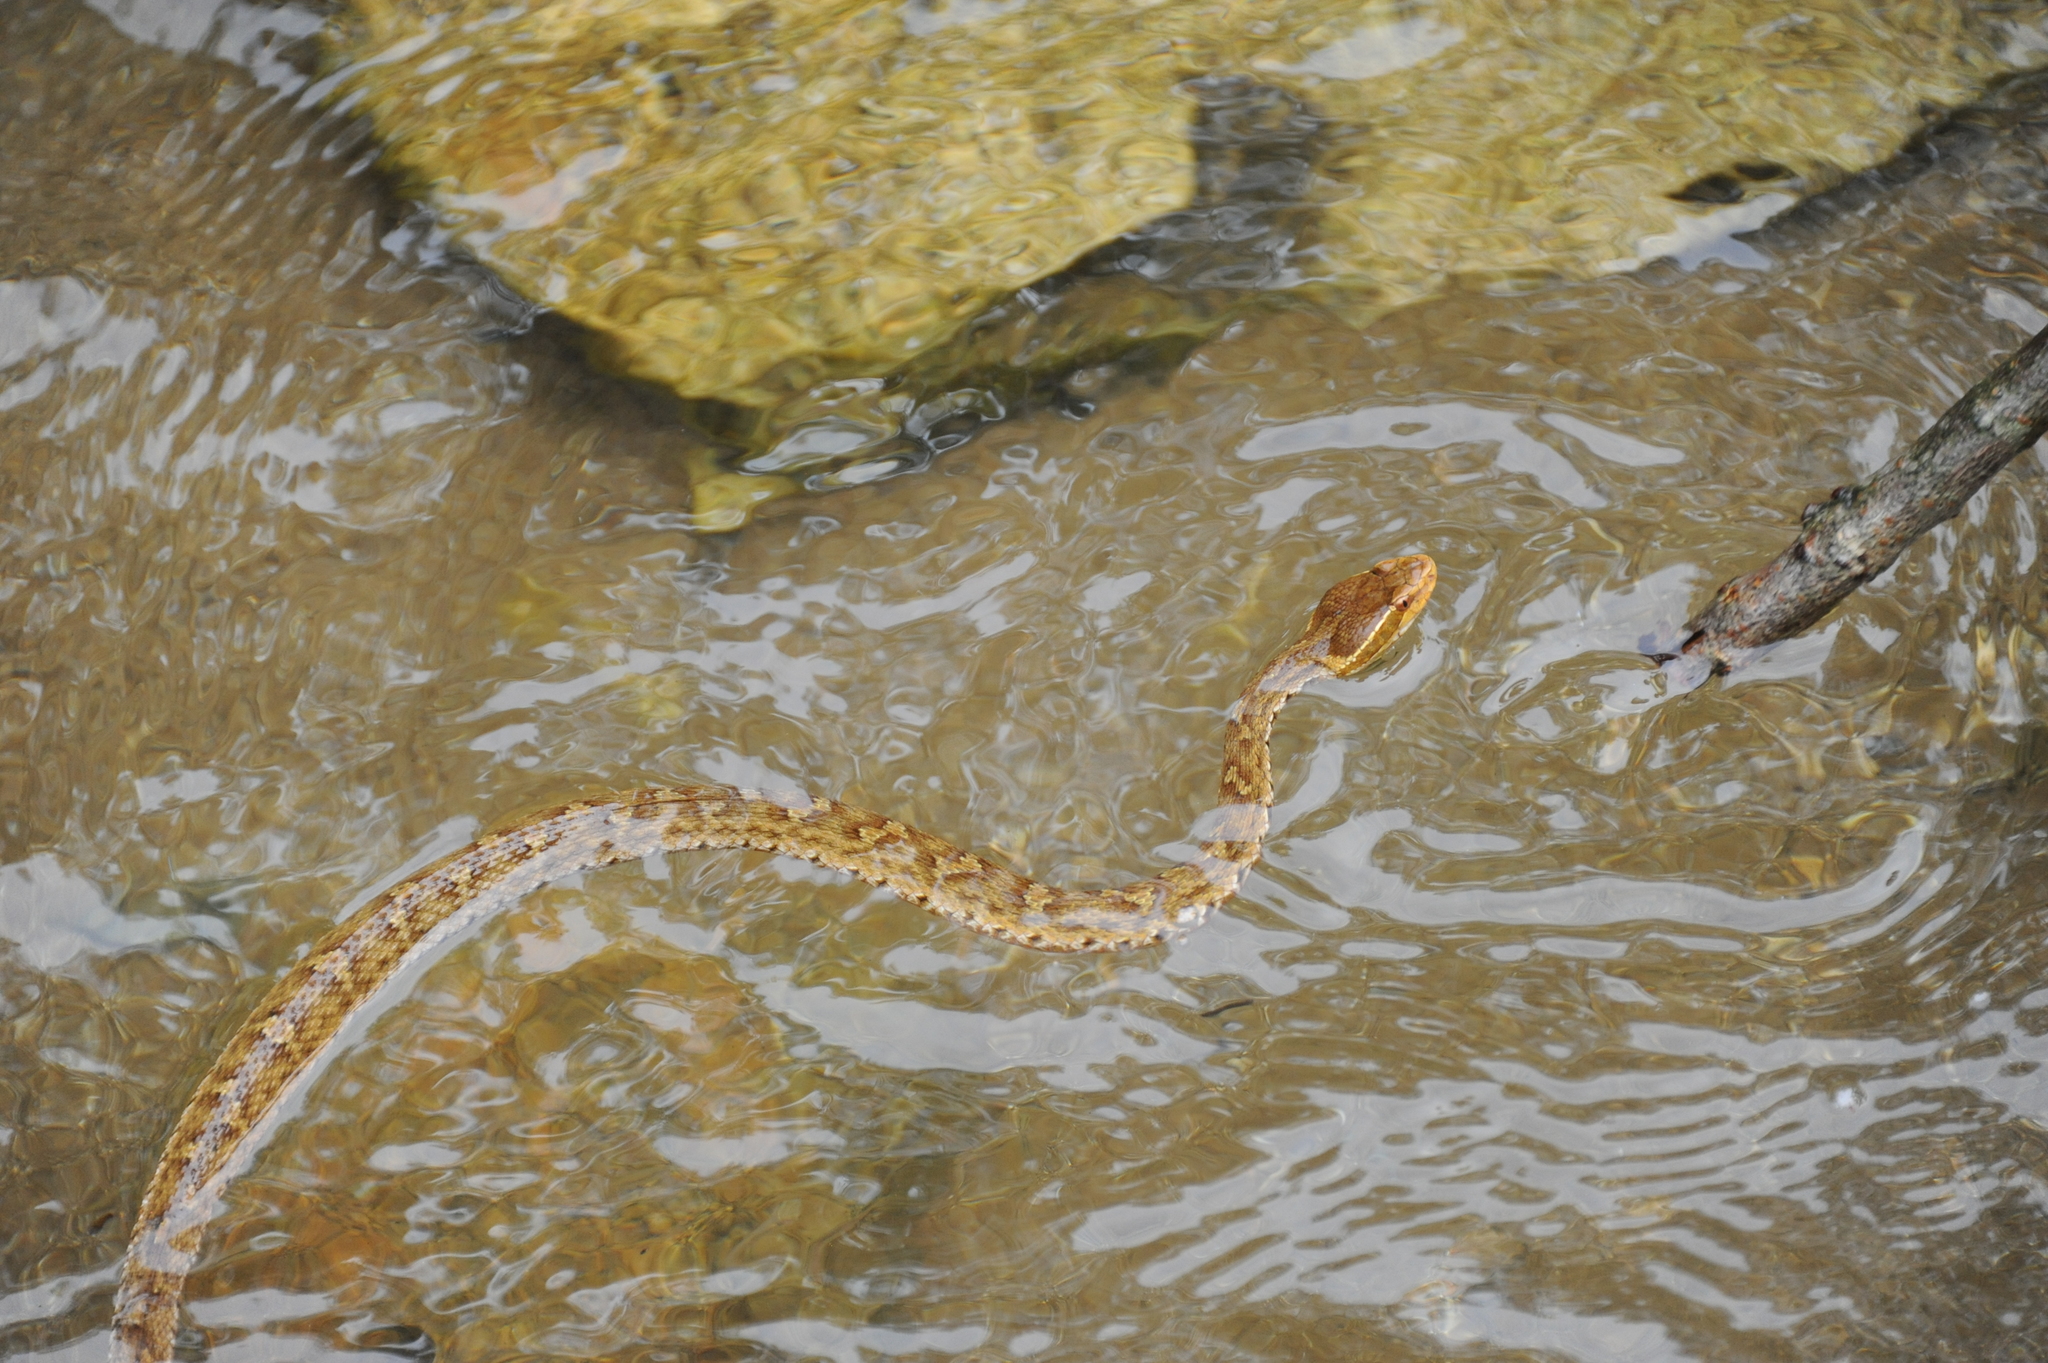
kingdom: Animalia
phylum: Chordata
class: Squamata
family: Viperidae
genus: Gloydius
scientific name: Gloydius ussuriensis
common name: Ussuri mamushi
